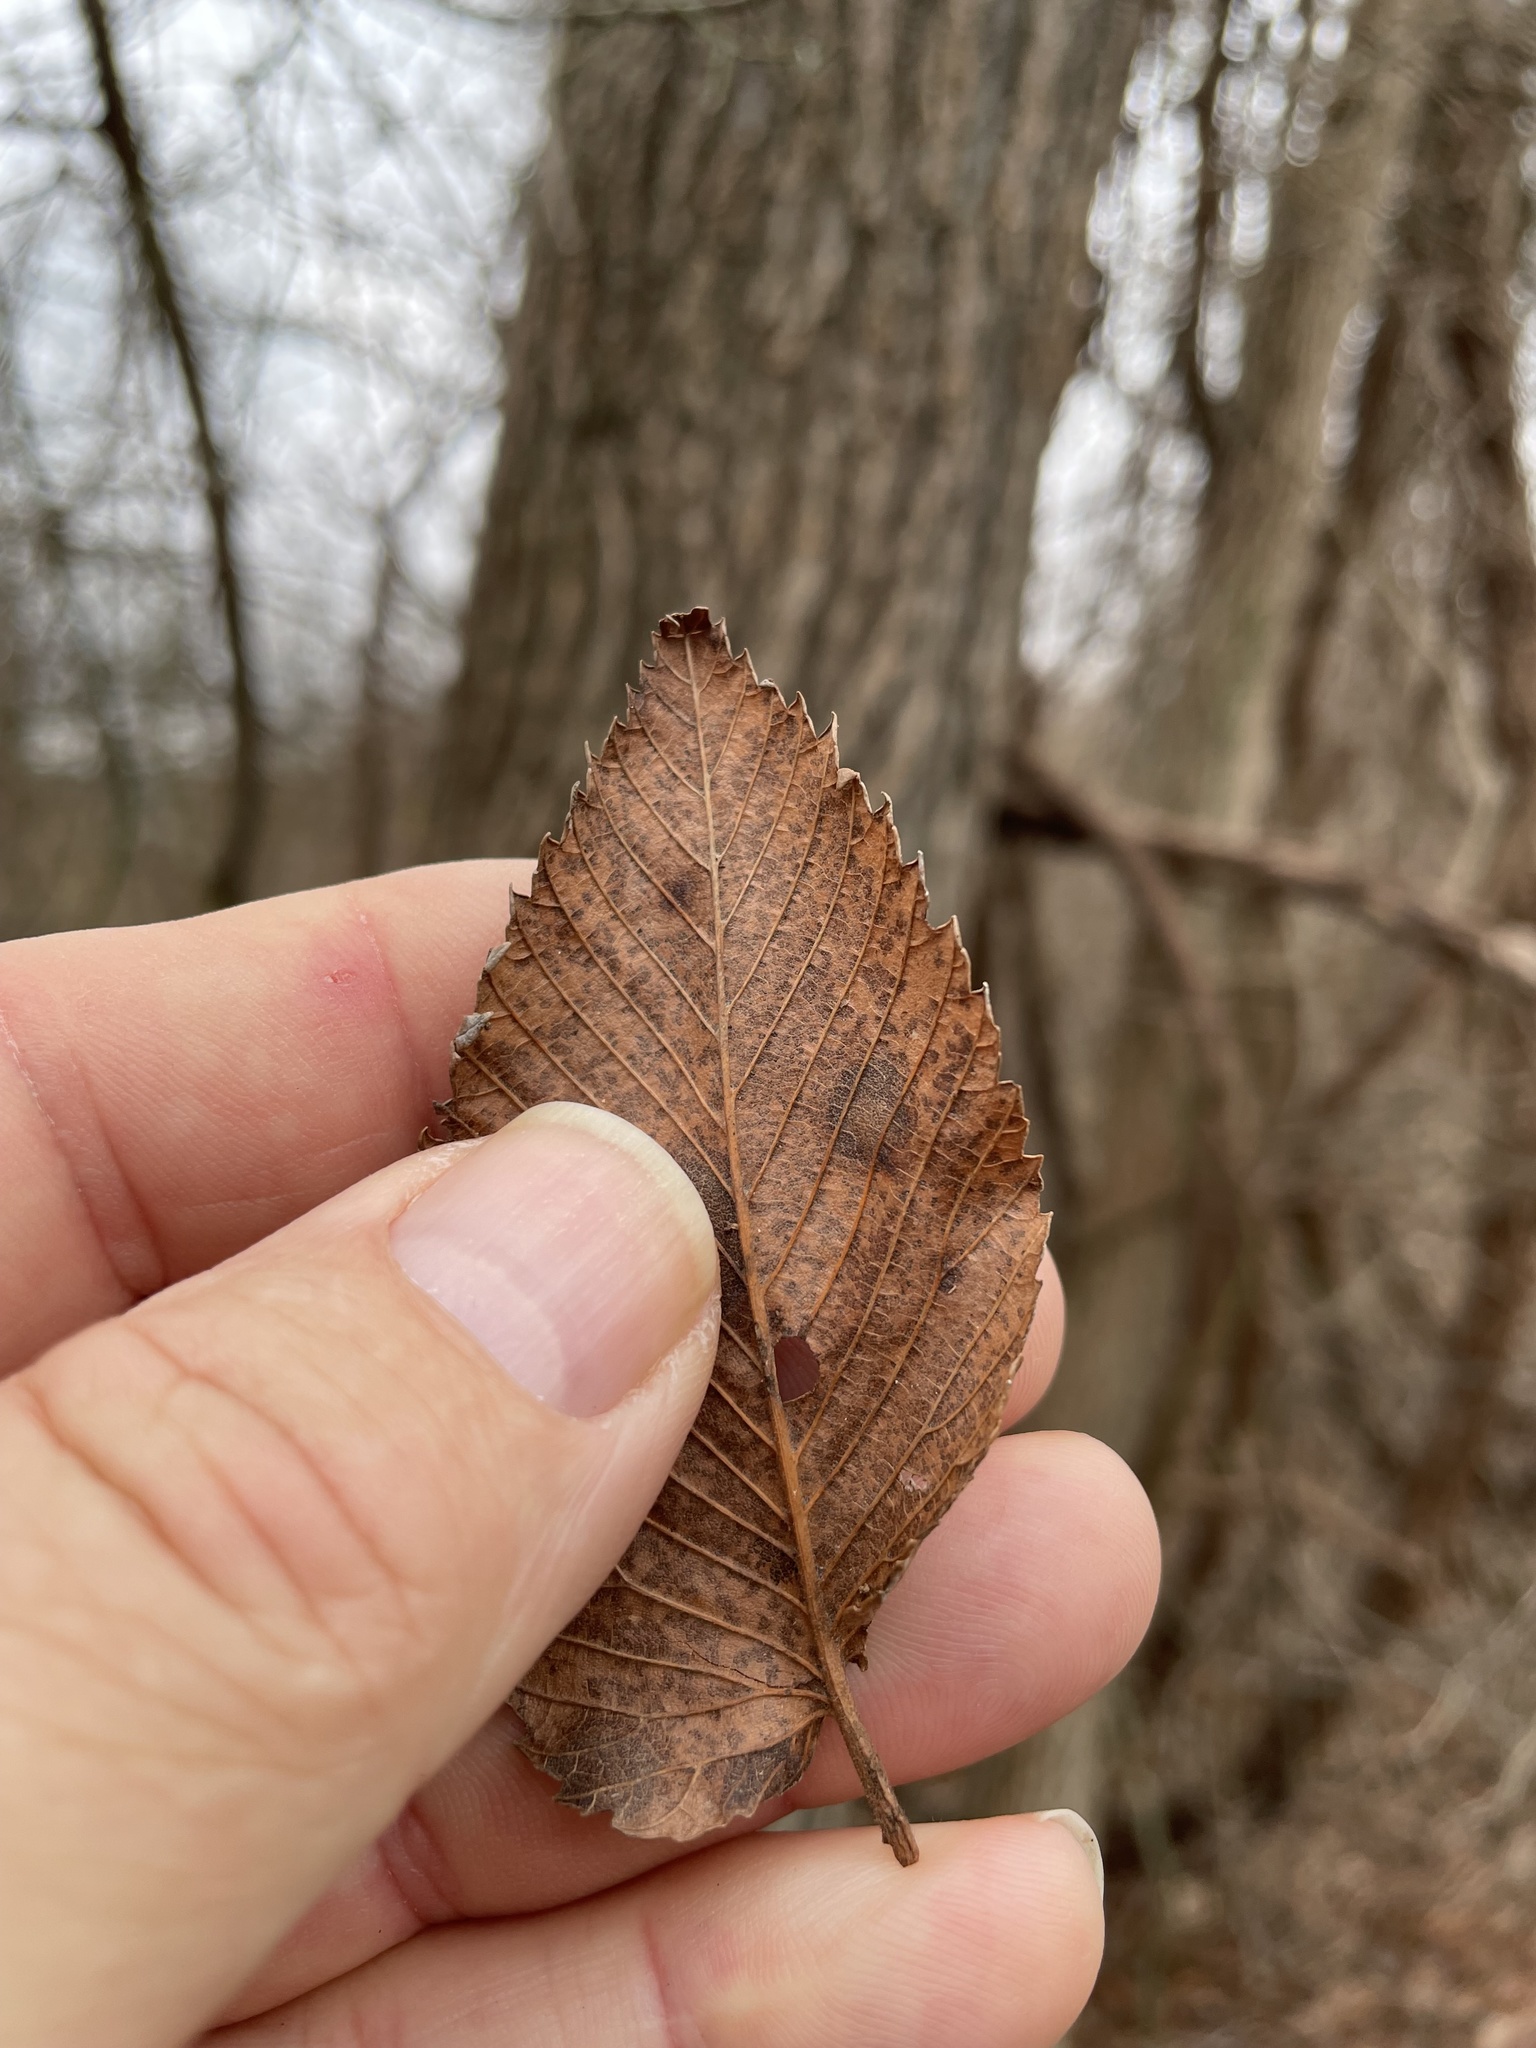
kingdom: Plantae
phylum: Tracheophyta
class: Magnoliopsida
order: Rosales
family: Ulmaceae
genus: Ulmus
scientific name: Ulmus americana
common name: American elm
